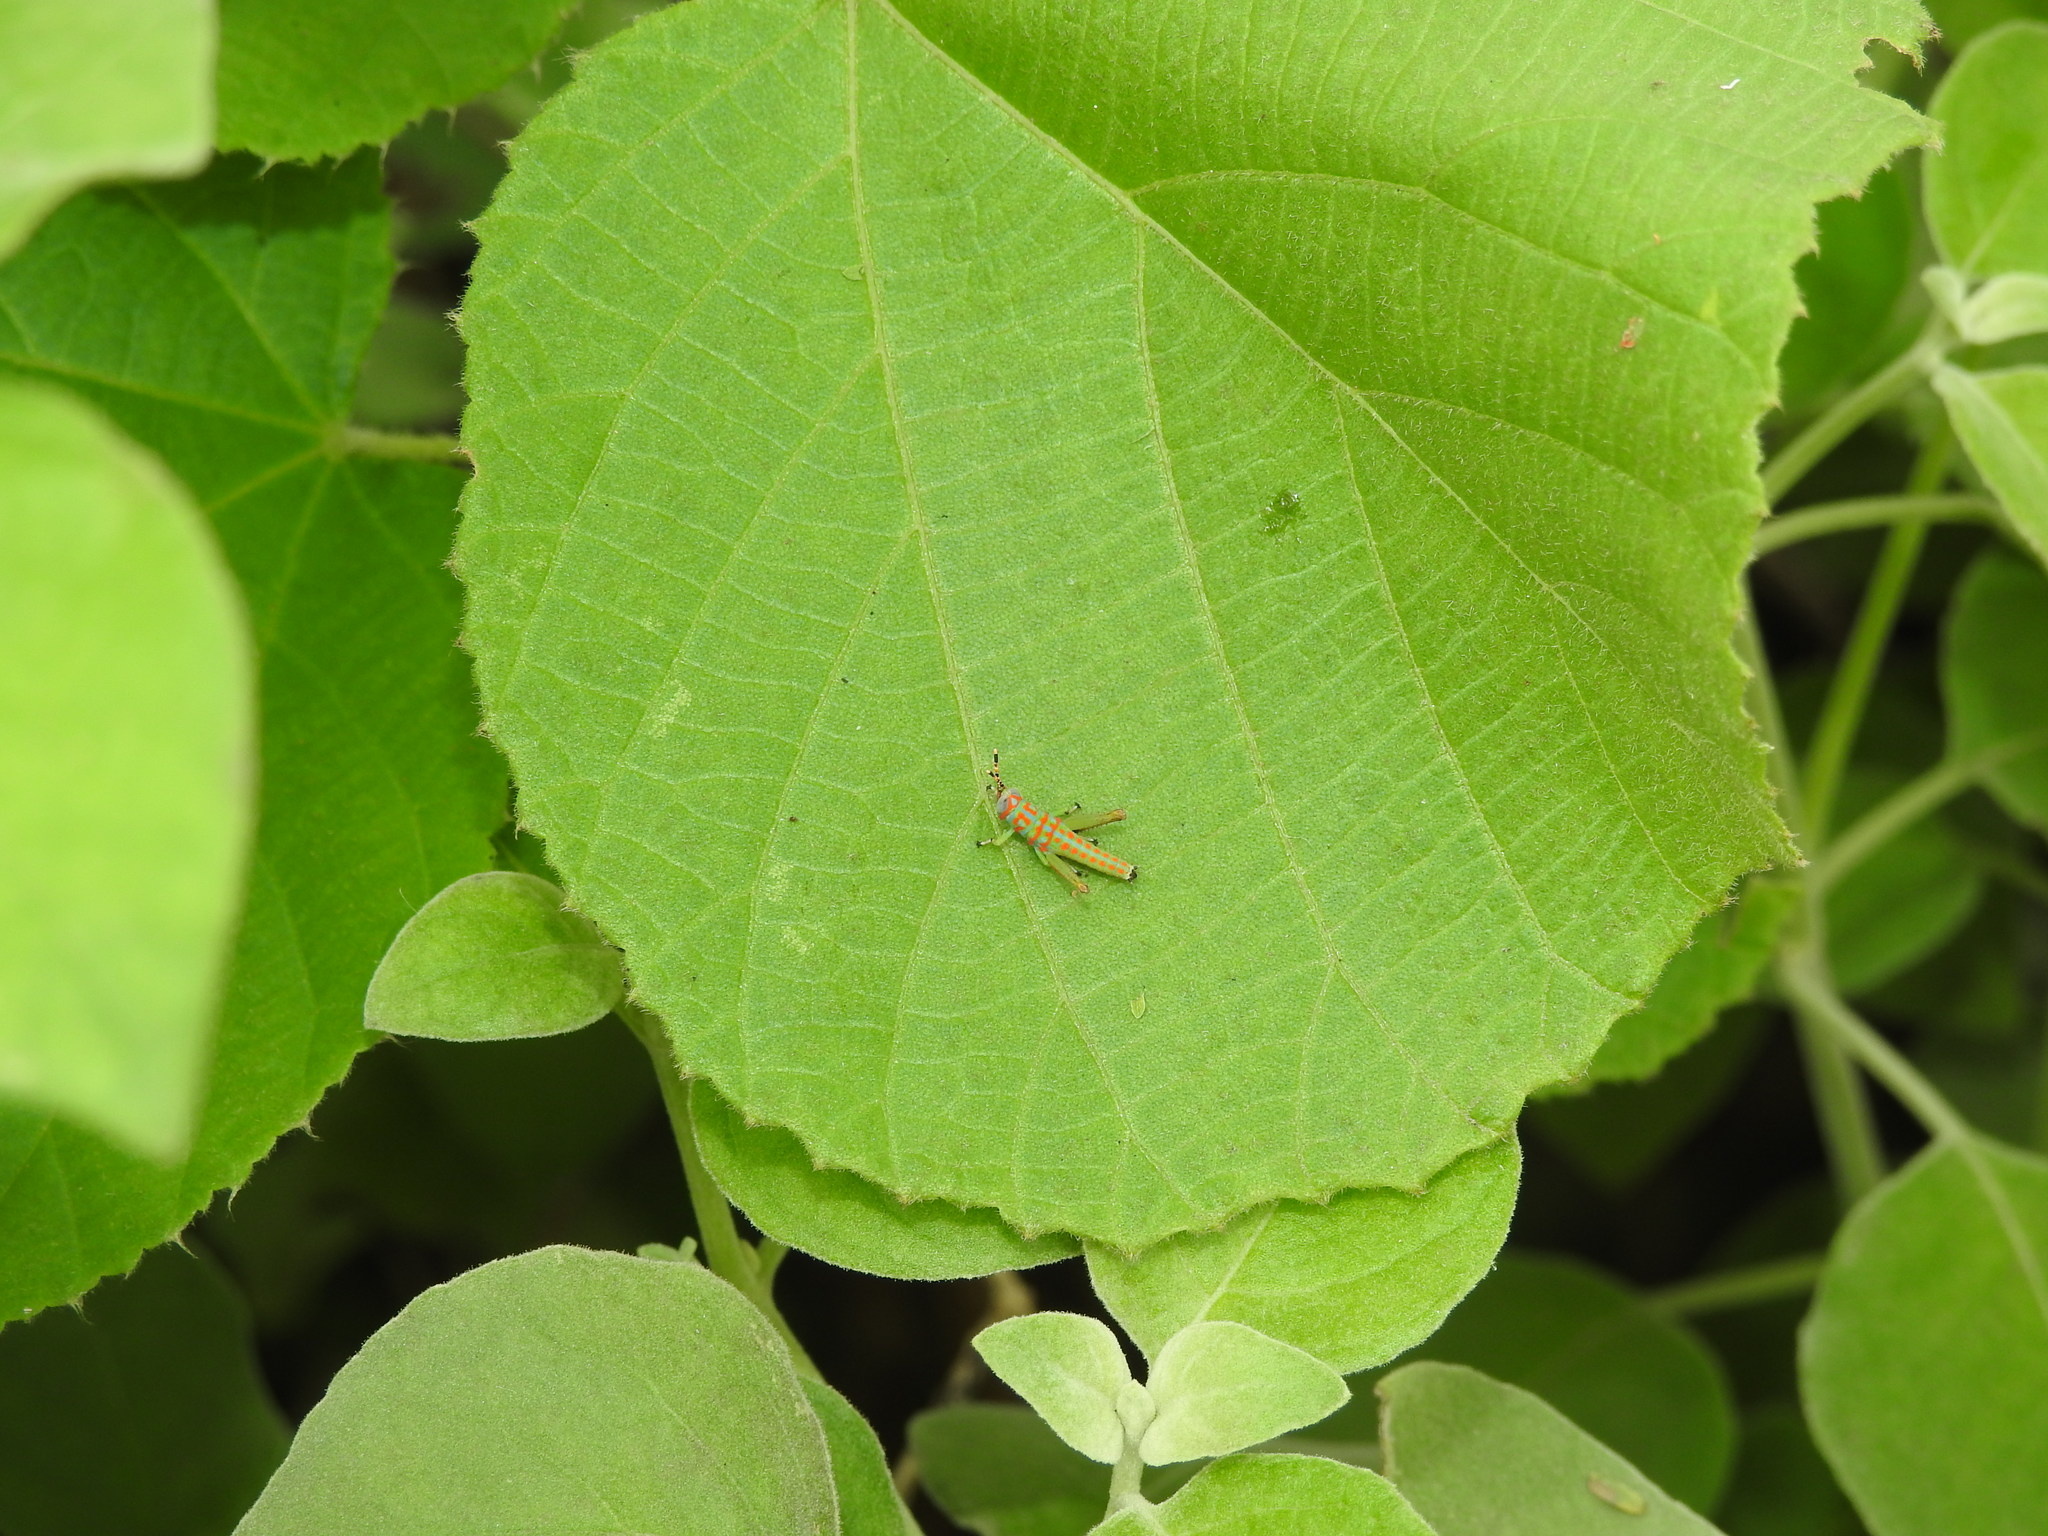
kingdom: Animalia
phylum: Arthropoda
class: Insecta
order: Orthoptera
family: Acrididae
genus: Pirithoicus
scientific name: Pirithoicus ophthalmicus
